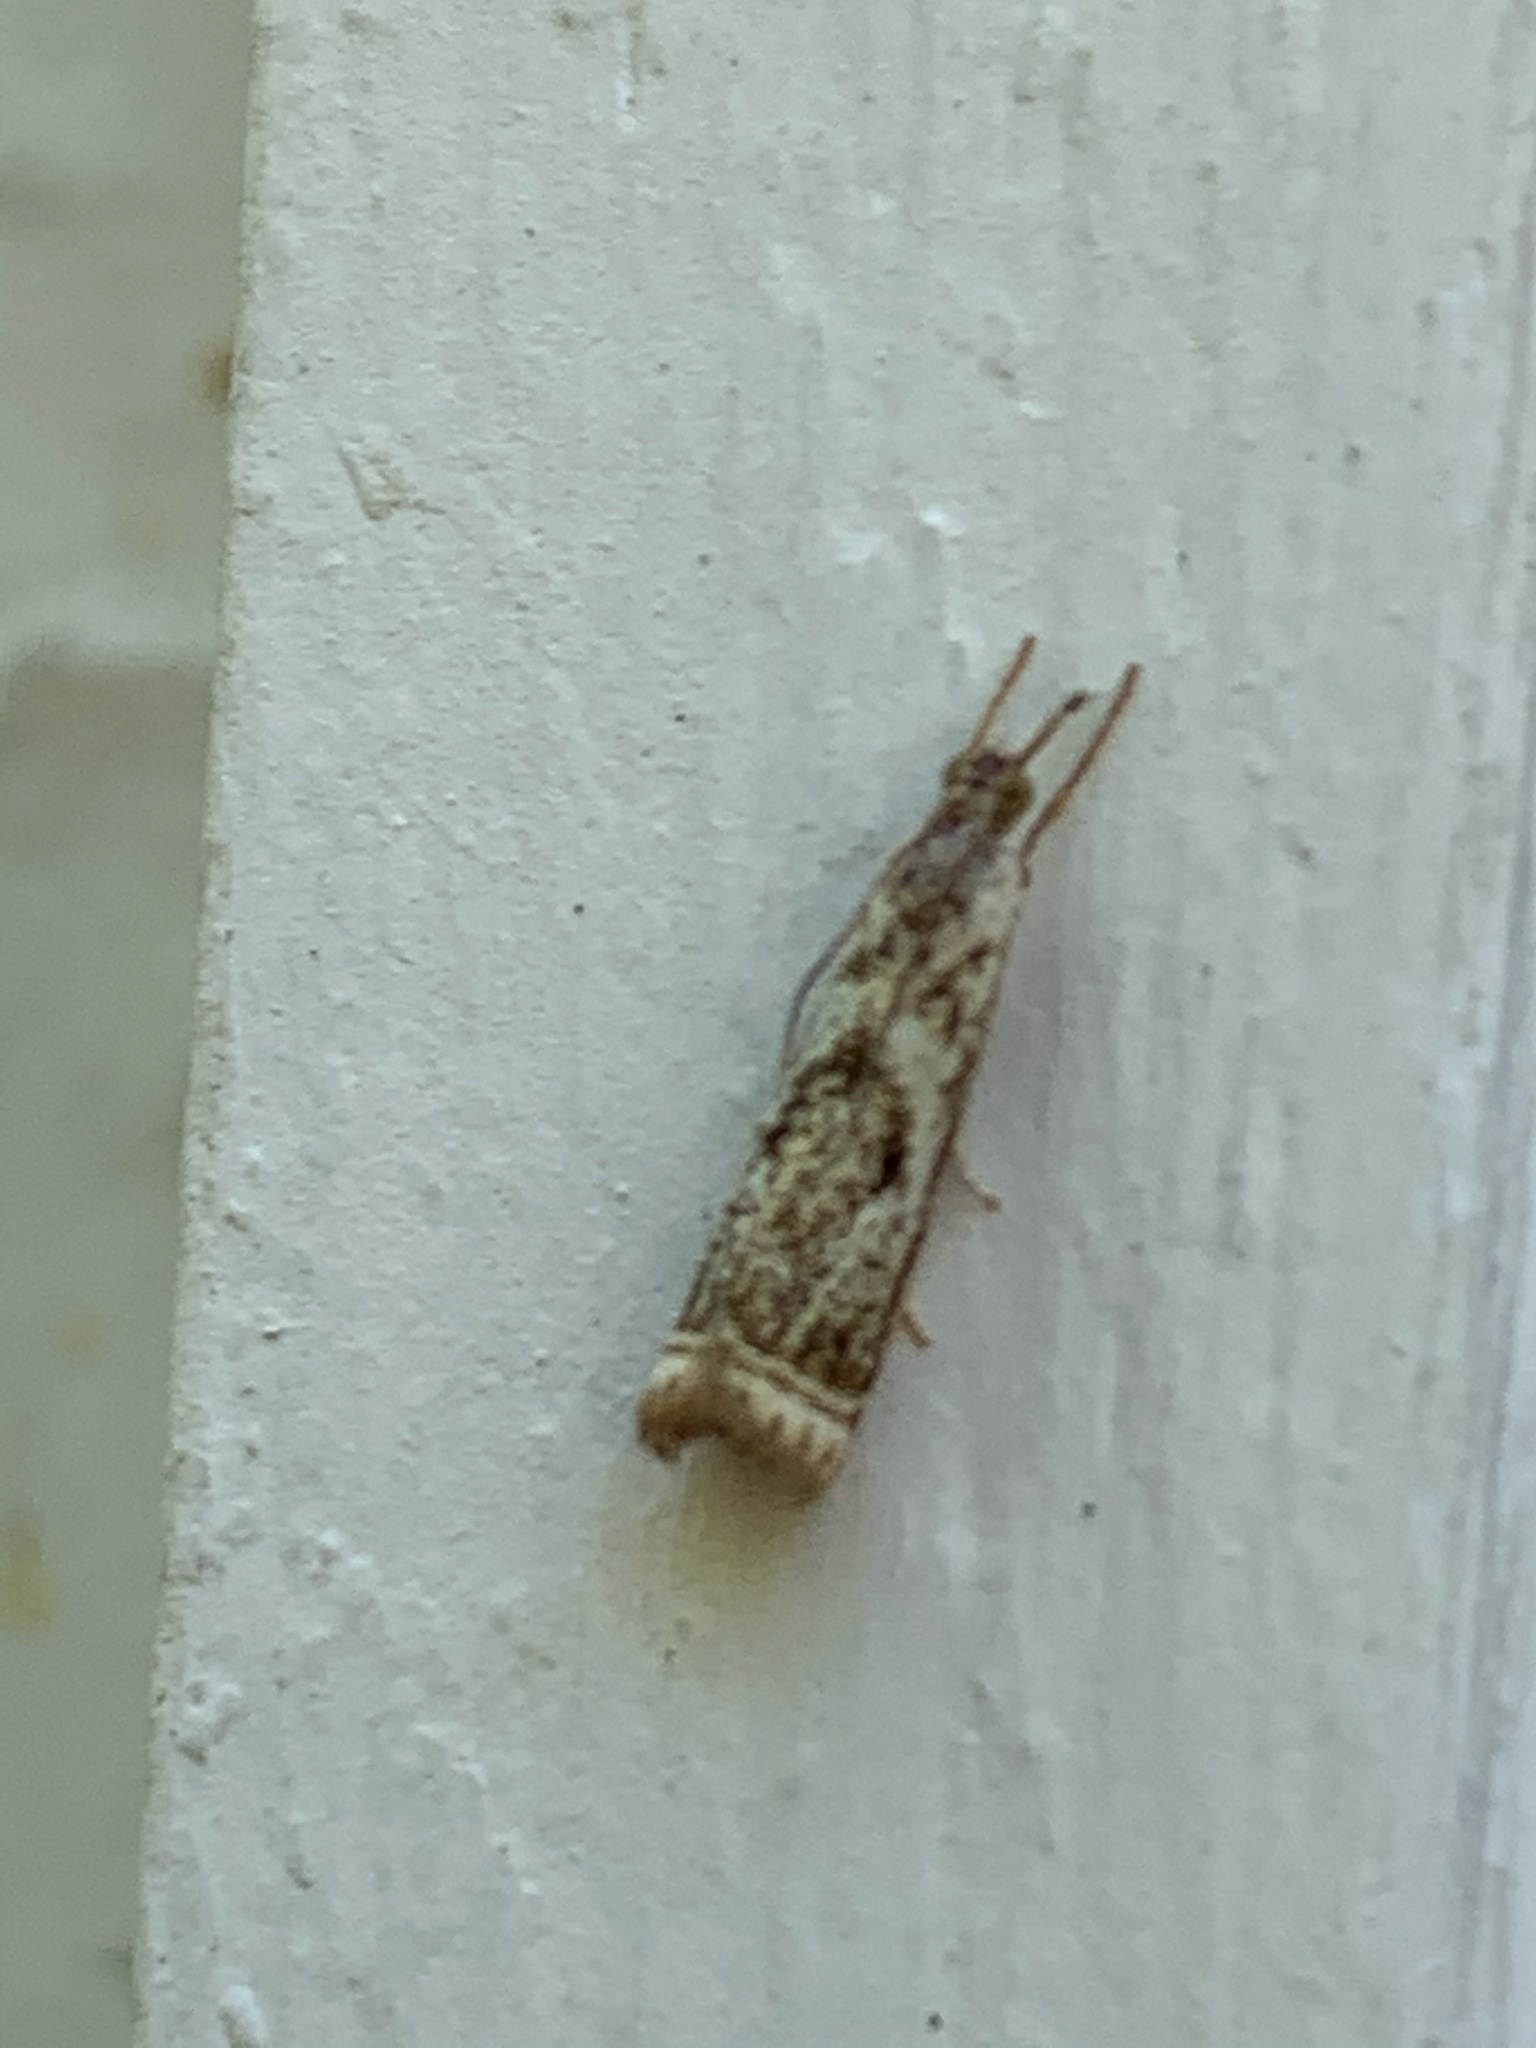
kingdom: Animalia
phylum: Arthropoda
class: Insecta
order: Lepidoptera
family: Crambidae
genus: Microcrambus
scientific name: Microcrambus elegans
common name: Elegant grass-veneer
